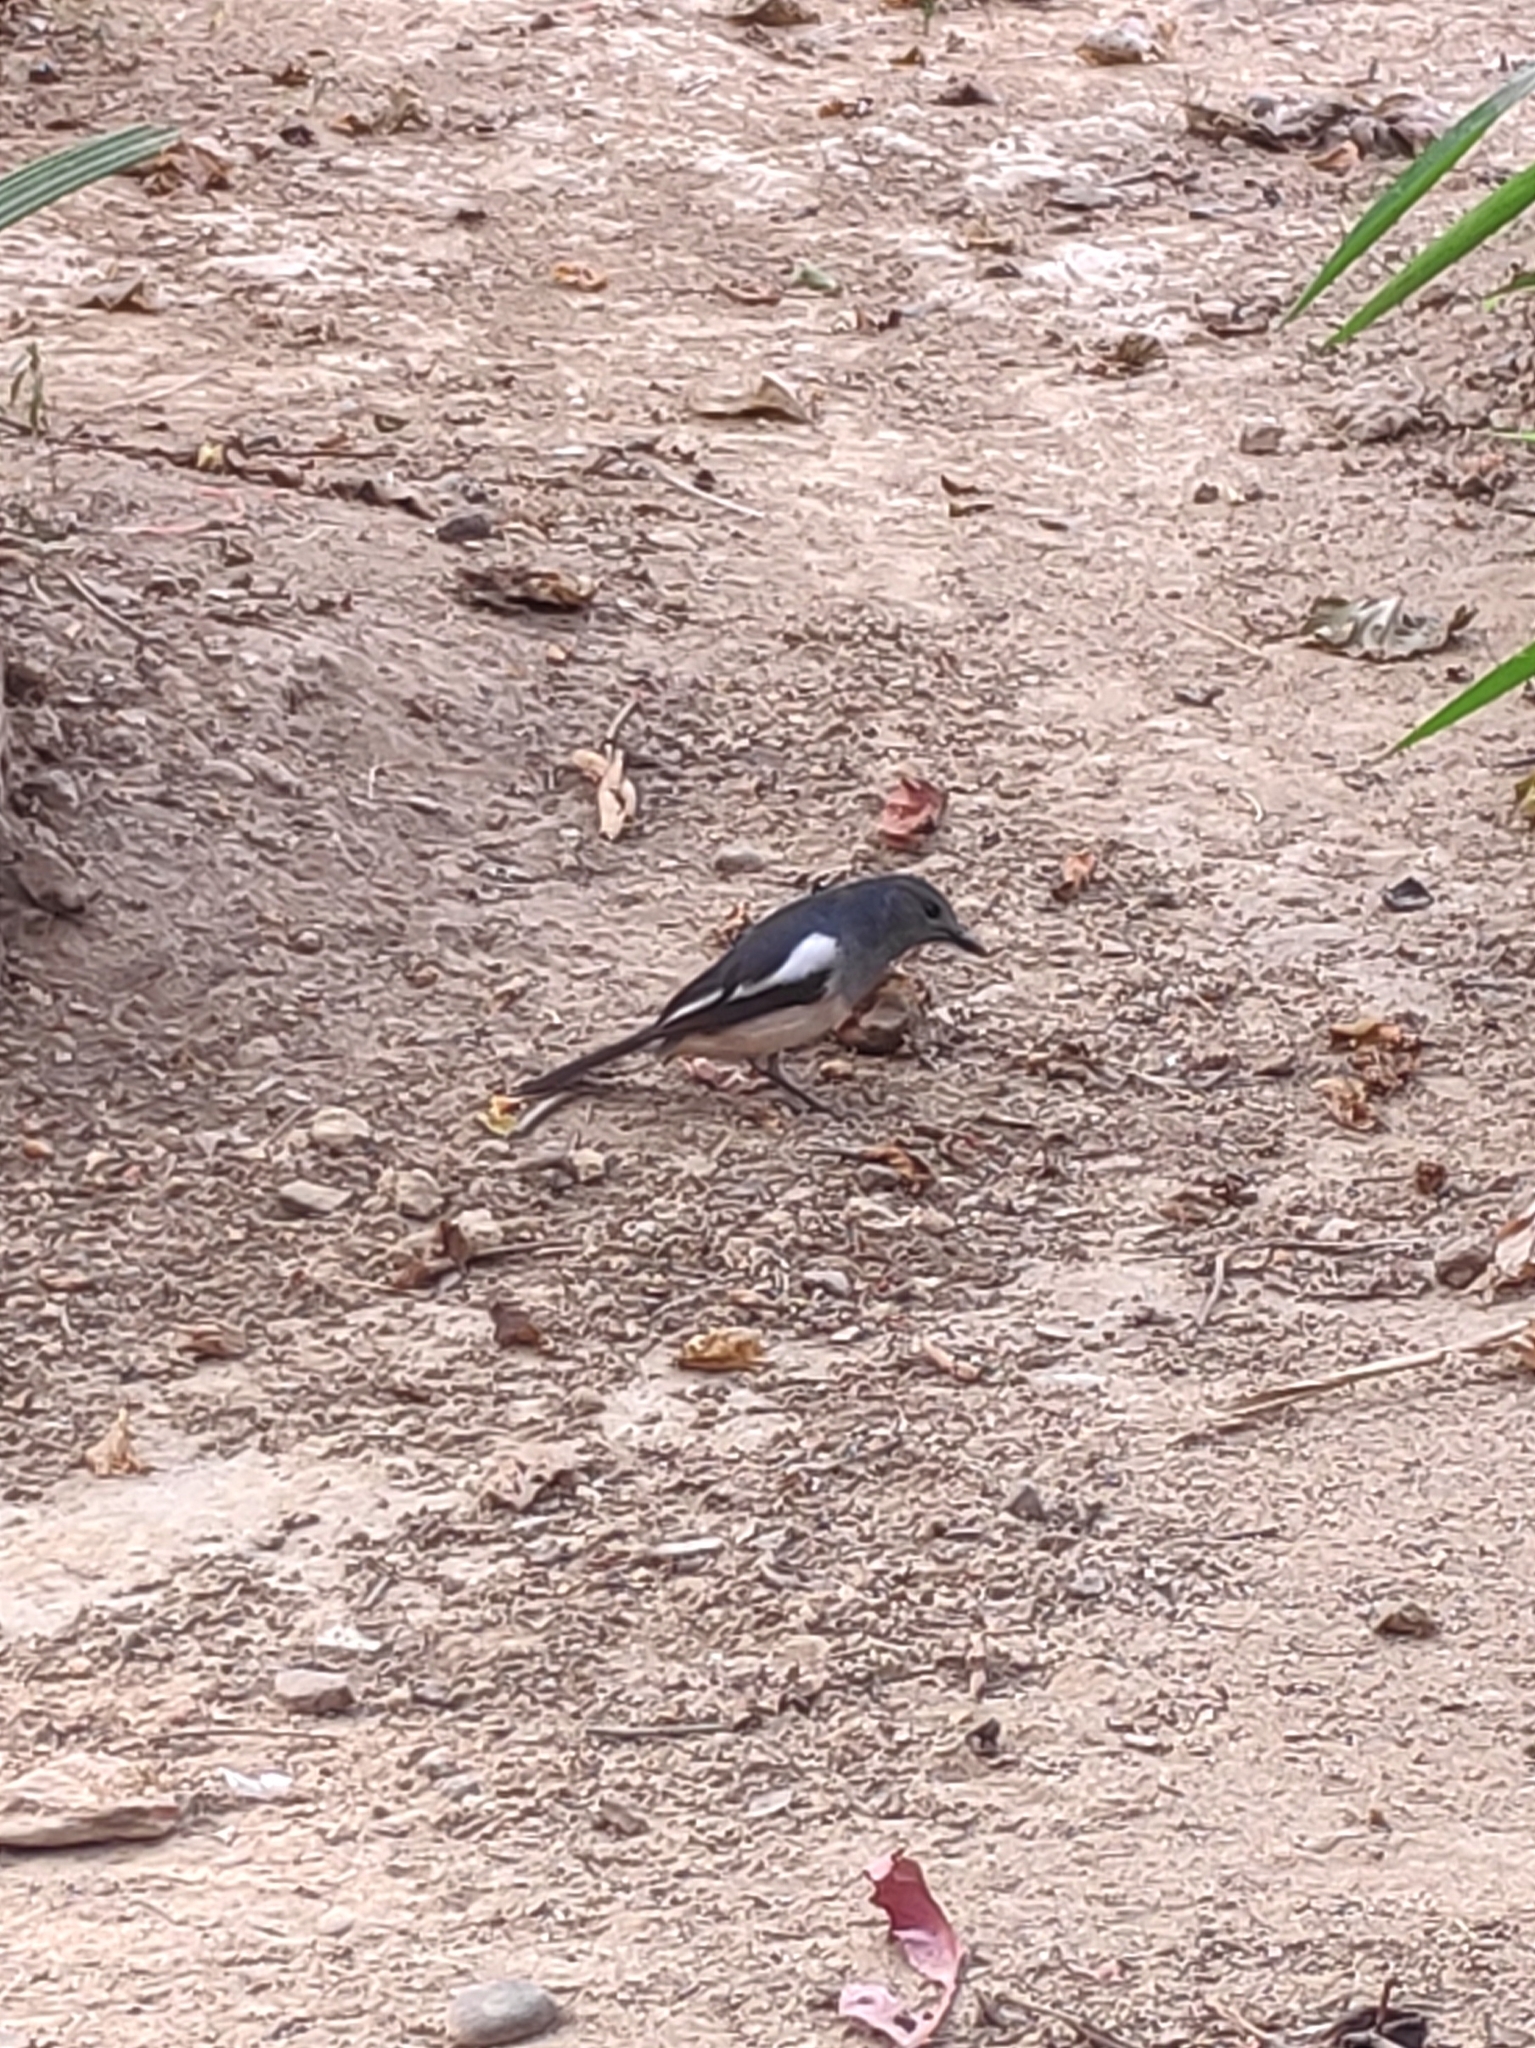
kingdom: Animalia
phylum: Chordata
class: Aves
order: Passeriformes
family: Muscicapidae
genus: Copsychus
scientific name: Copsychus saularis
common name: Oriental magpie-robin
